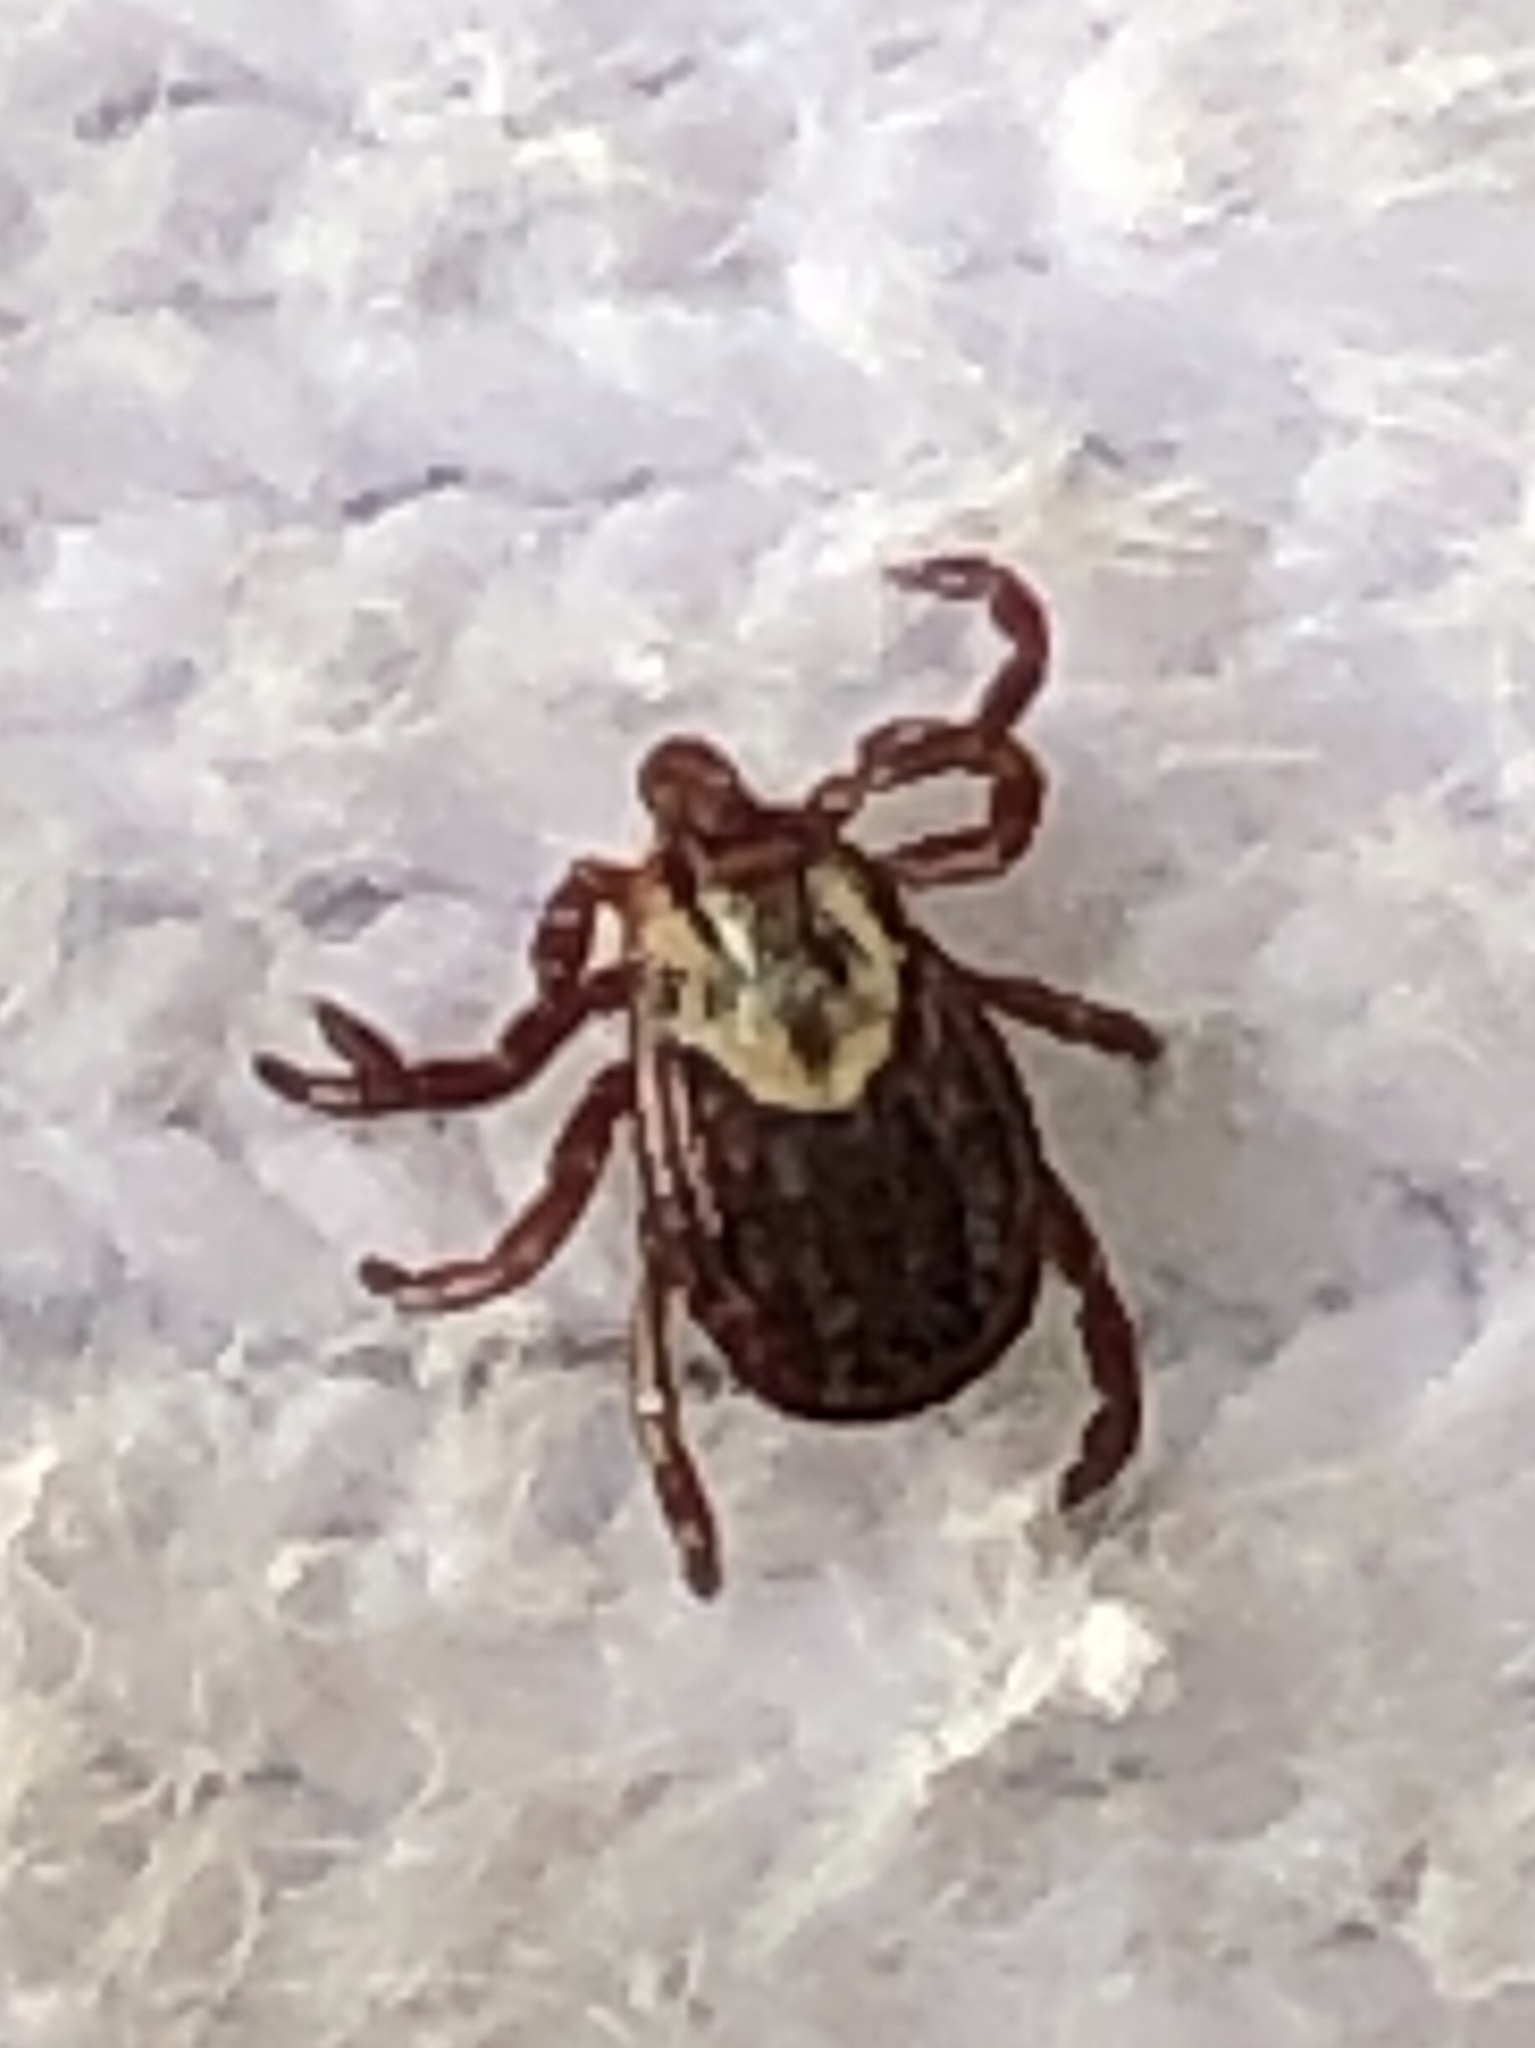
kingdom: Animalia
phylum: Arthropoda
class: Arachnida
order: Ixodida
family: Ixodidae
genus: Dermacentor
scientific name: Dermacentor variabilis
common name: American dog tick
